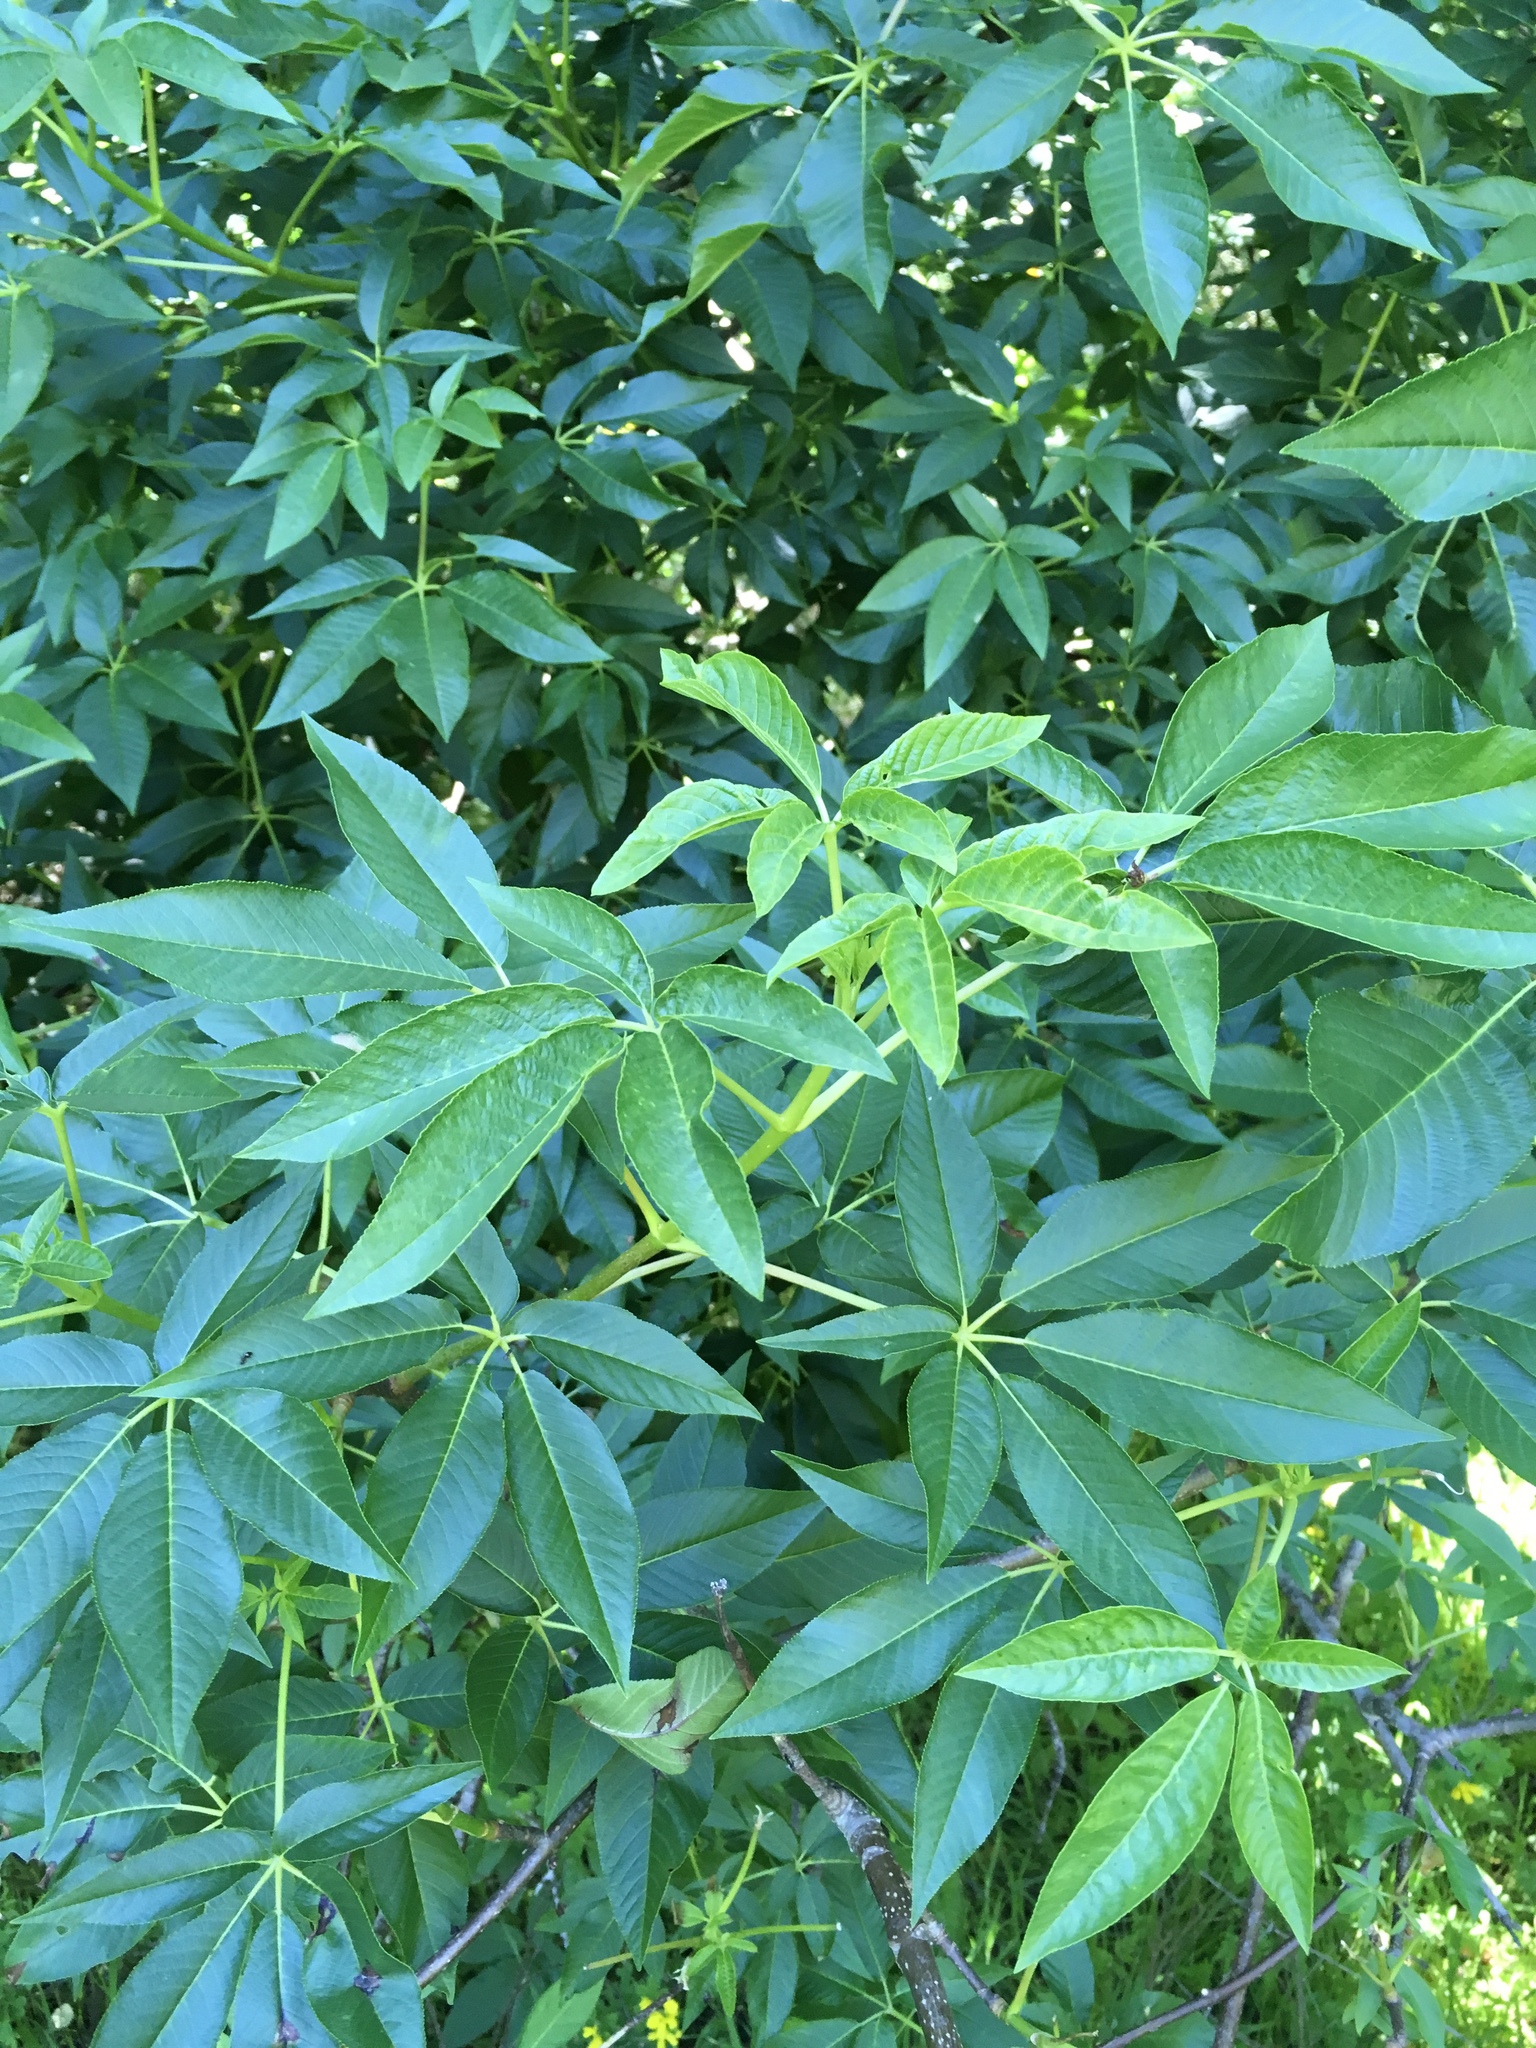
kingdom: Plantae
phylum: Tracheophyta
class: Magnoliopsida
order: Sapindales
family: Sapindaceae
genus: Aesculus
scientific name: Aesculus californica
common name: California buckeye
